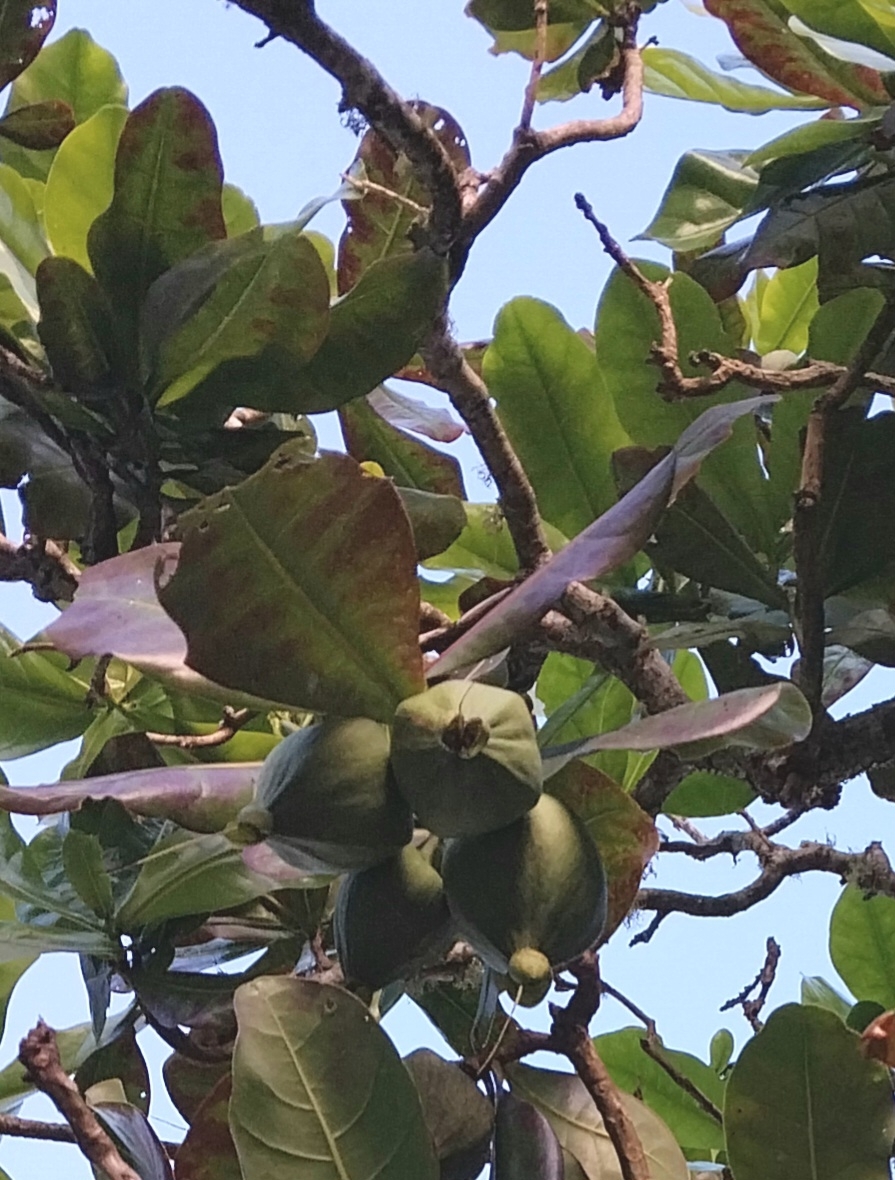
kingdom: Plantae
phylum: Tracheophyta
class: Magnoliopsida
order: Ericales
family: Lecythidaceae
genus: Barringtonia
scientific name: Barringtonia asiatica
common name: Mango-pine
